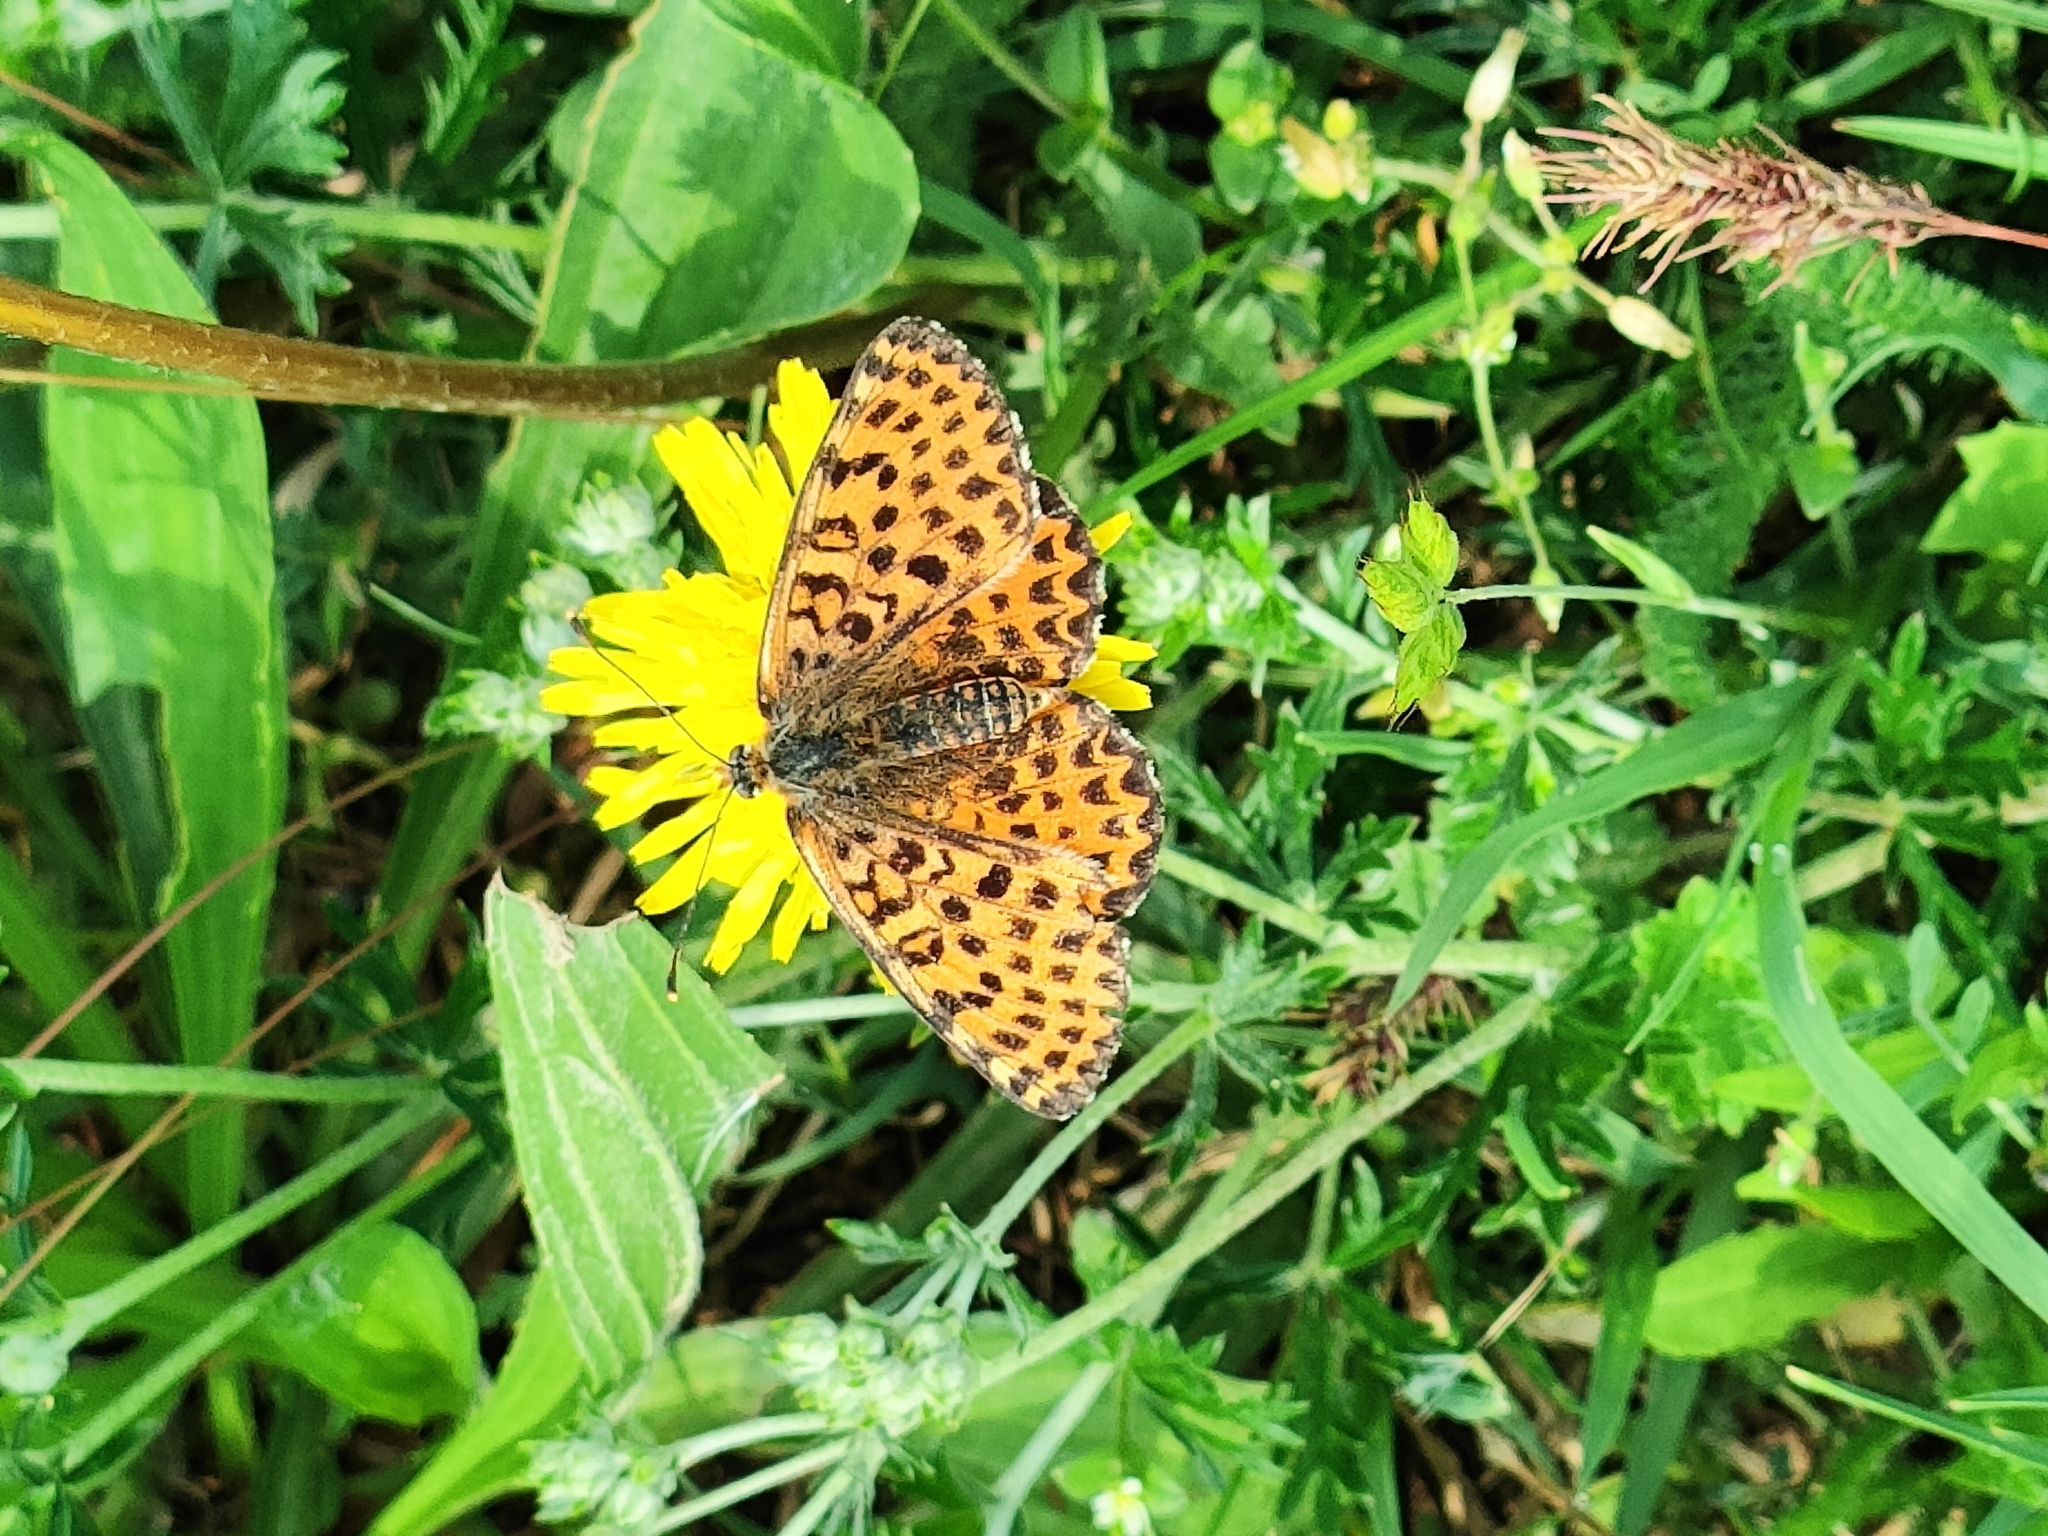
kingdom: Animalia
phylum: Arthropoda
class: Insecta
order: Lepidoptera
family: Nymphalidae
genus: Melitaea
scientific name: Melitaea didyma
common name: Spotted fritillary
